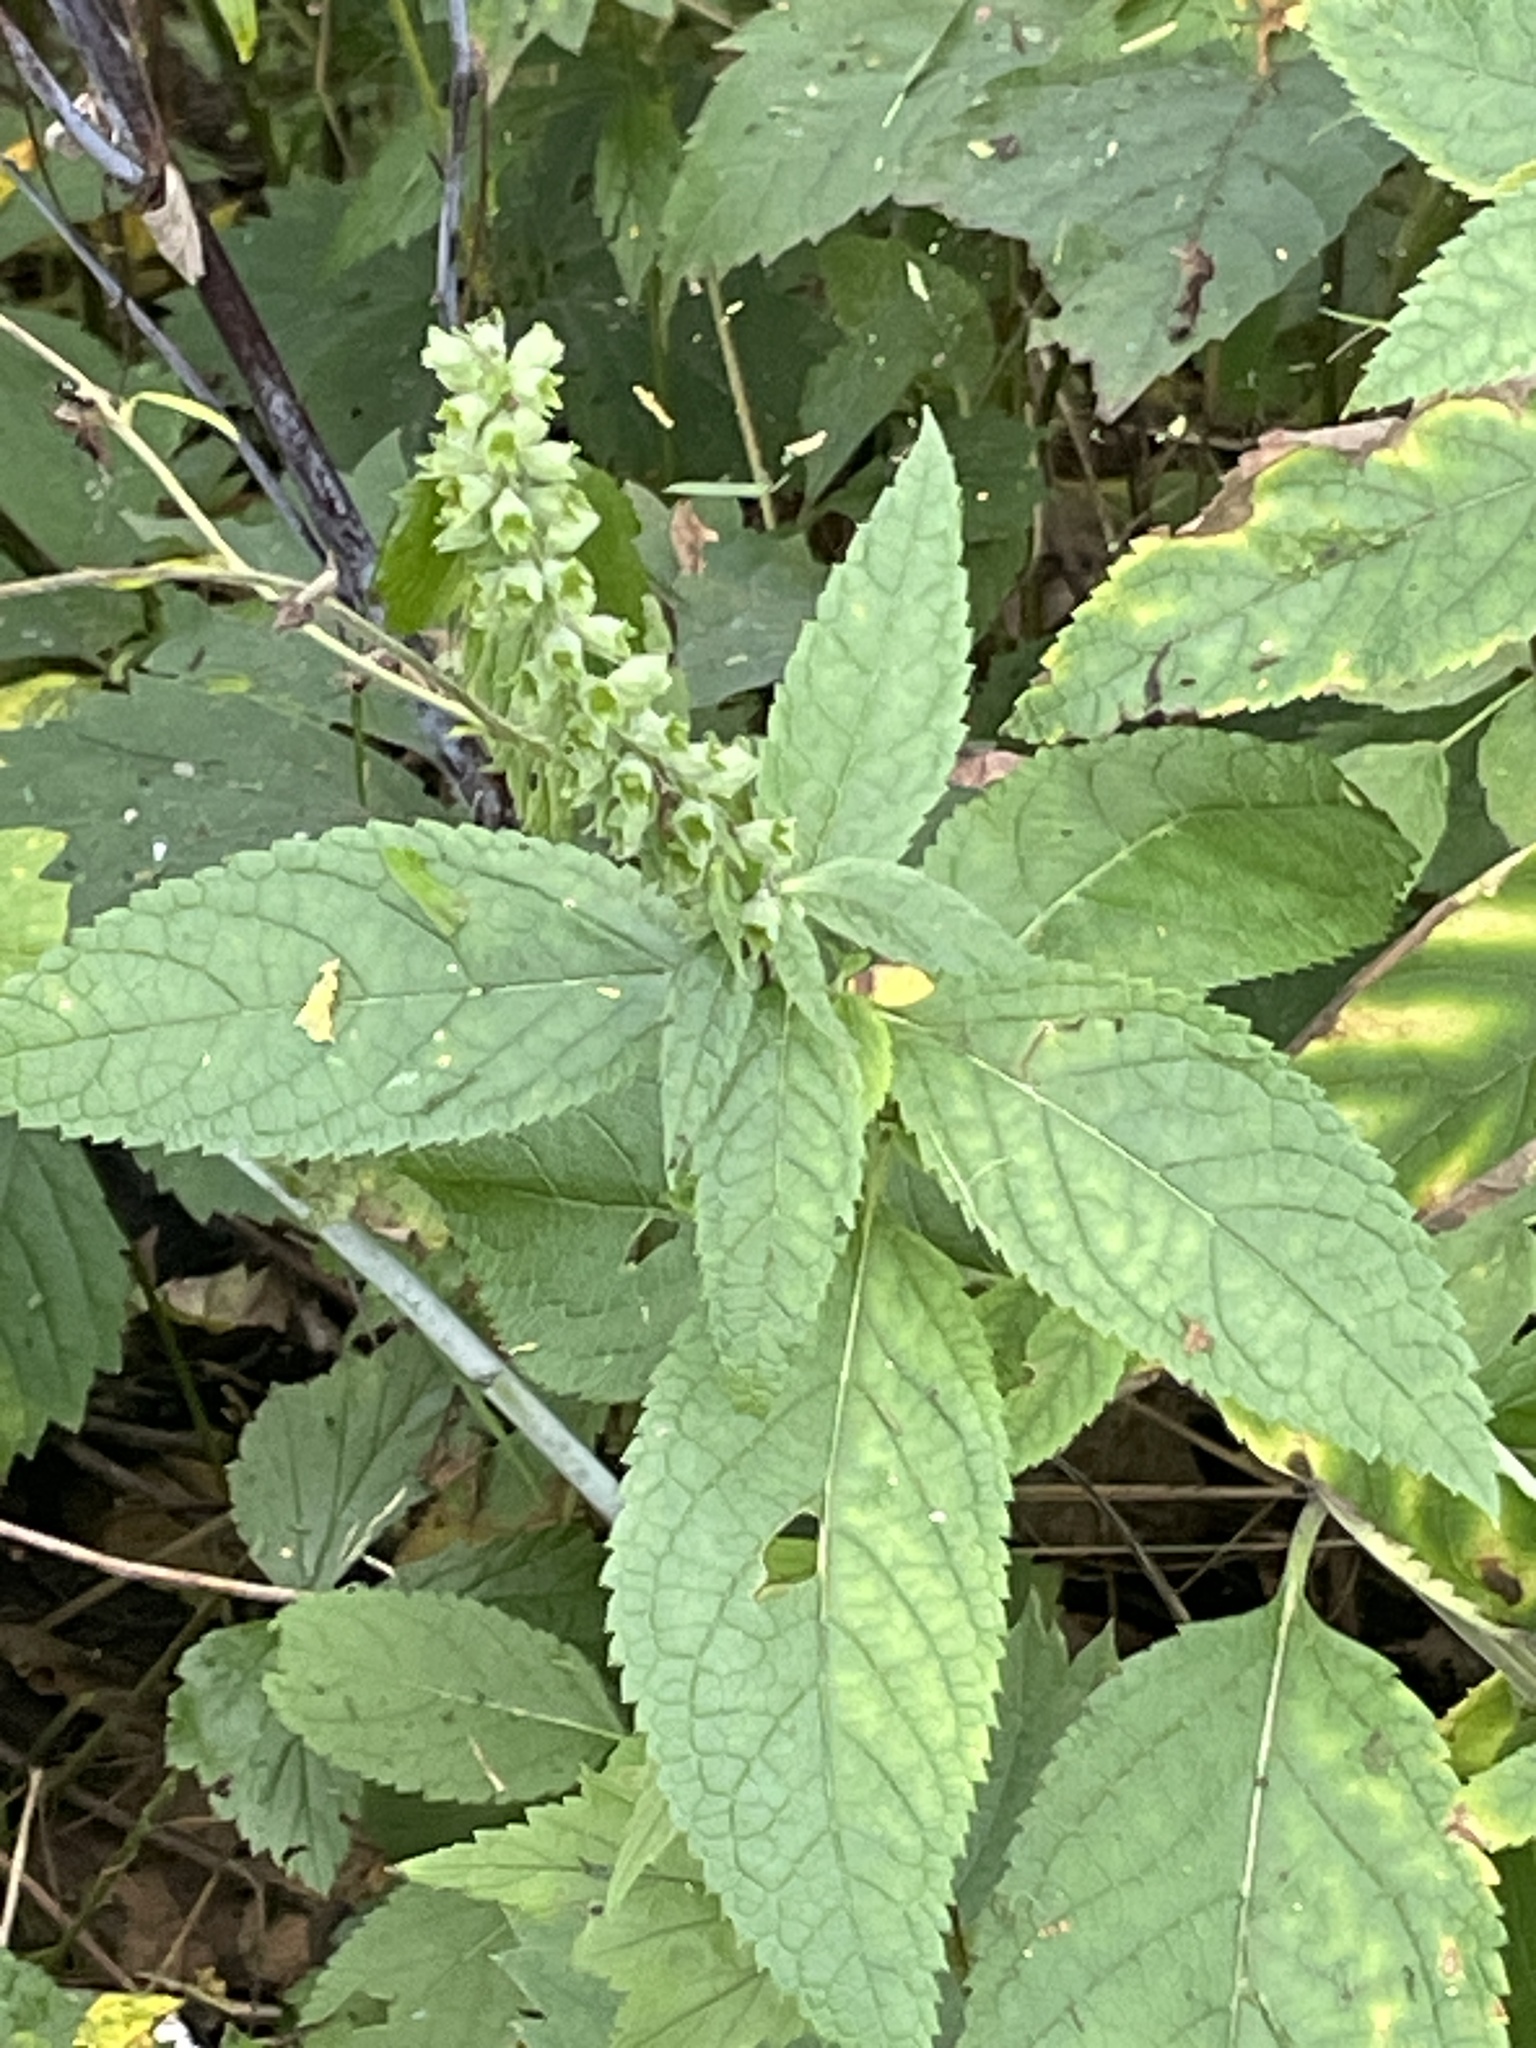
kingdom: Plantae
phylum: Tracheophyta
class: Magnoliopsida
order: Lamiales
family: Lamiaceae
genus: Teucrium
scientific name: Teucrium canadense
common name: American germander
